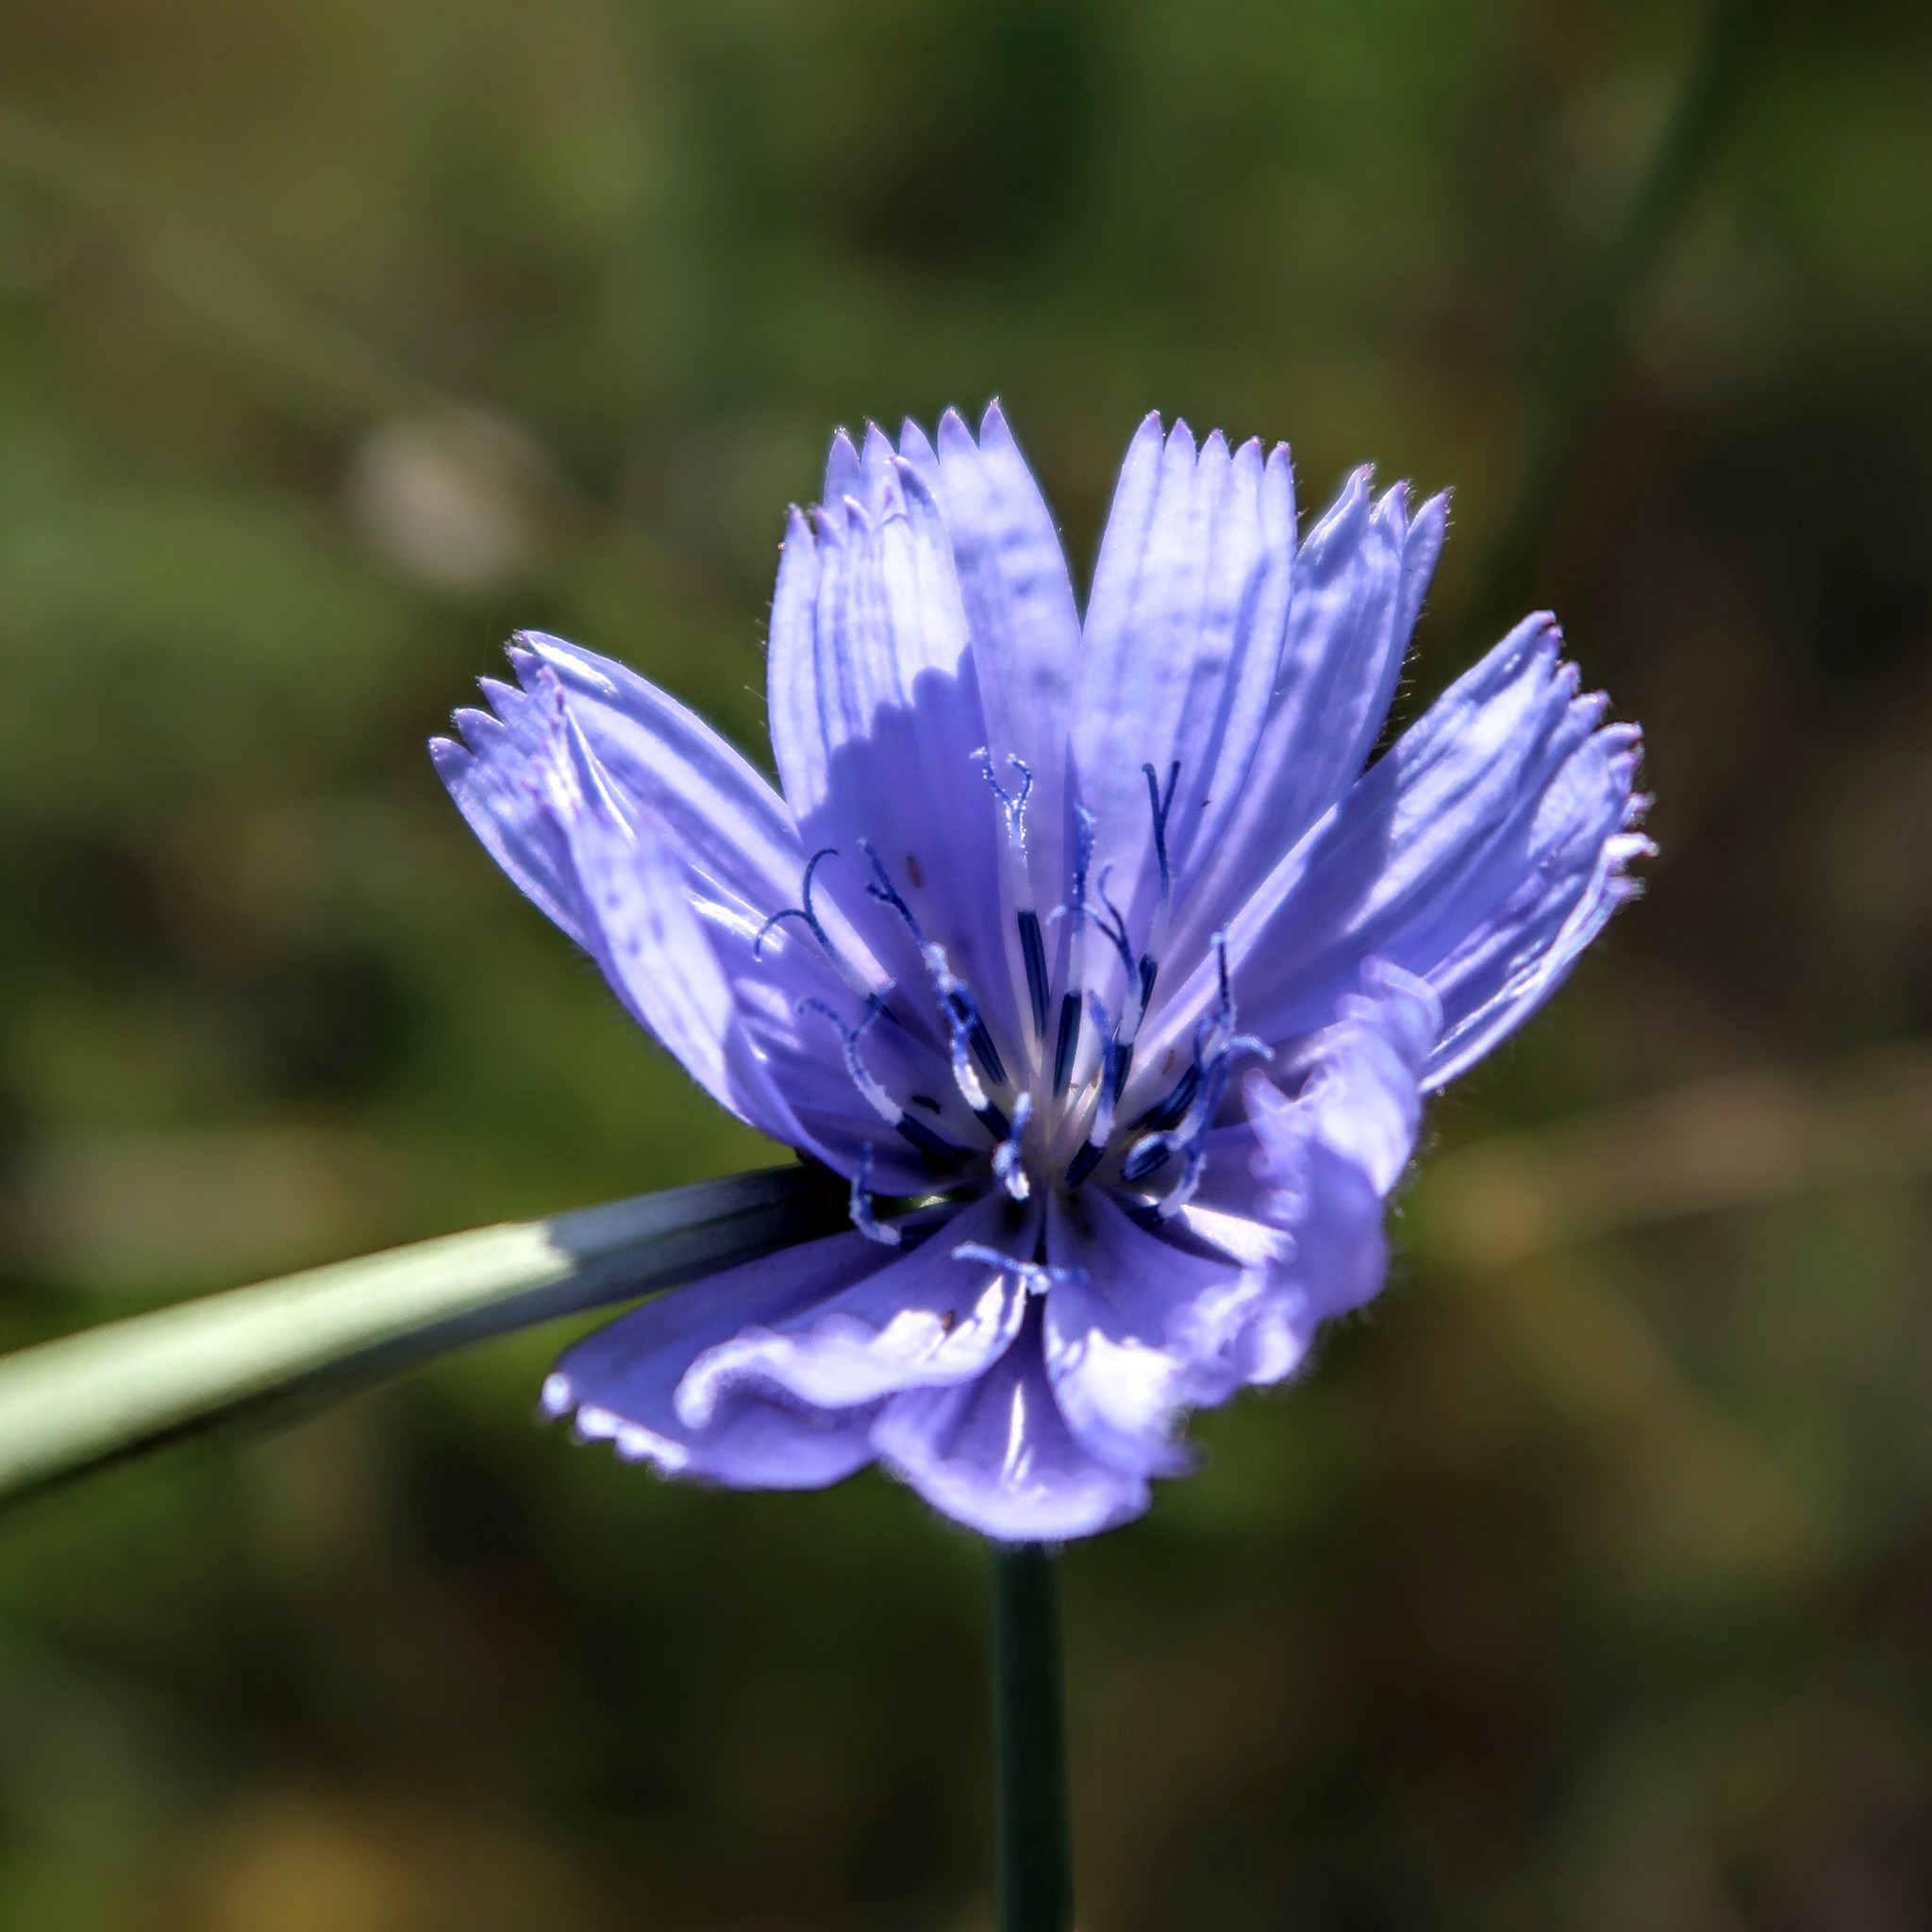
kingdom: Plantae
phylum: Tracheophyta
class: Magnoliopsida
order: Asterales
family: Asteraceae
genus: Cichorium
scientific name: Cichorium intybus
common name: Chicory
